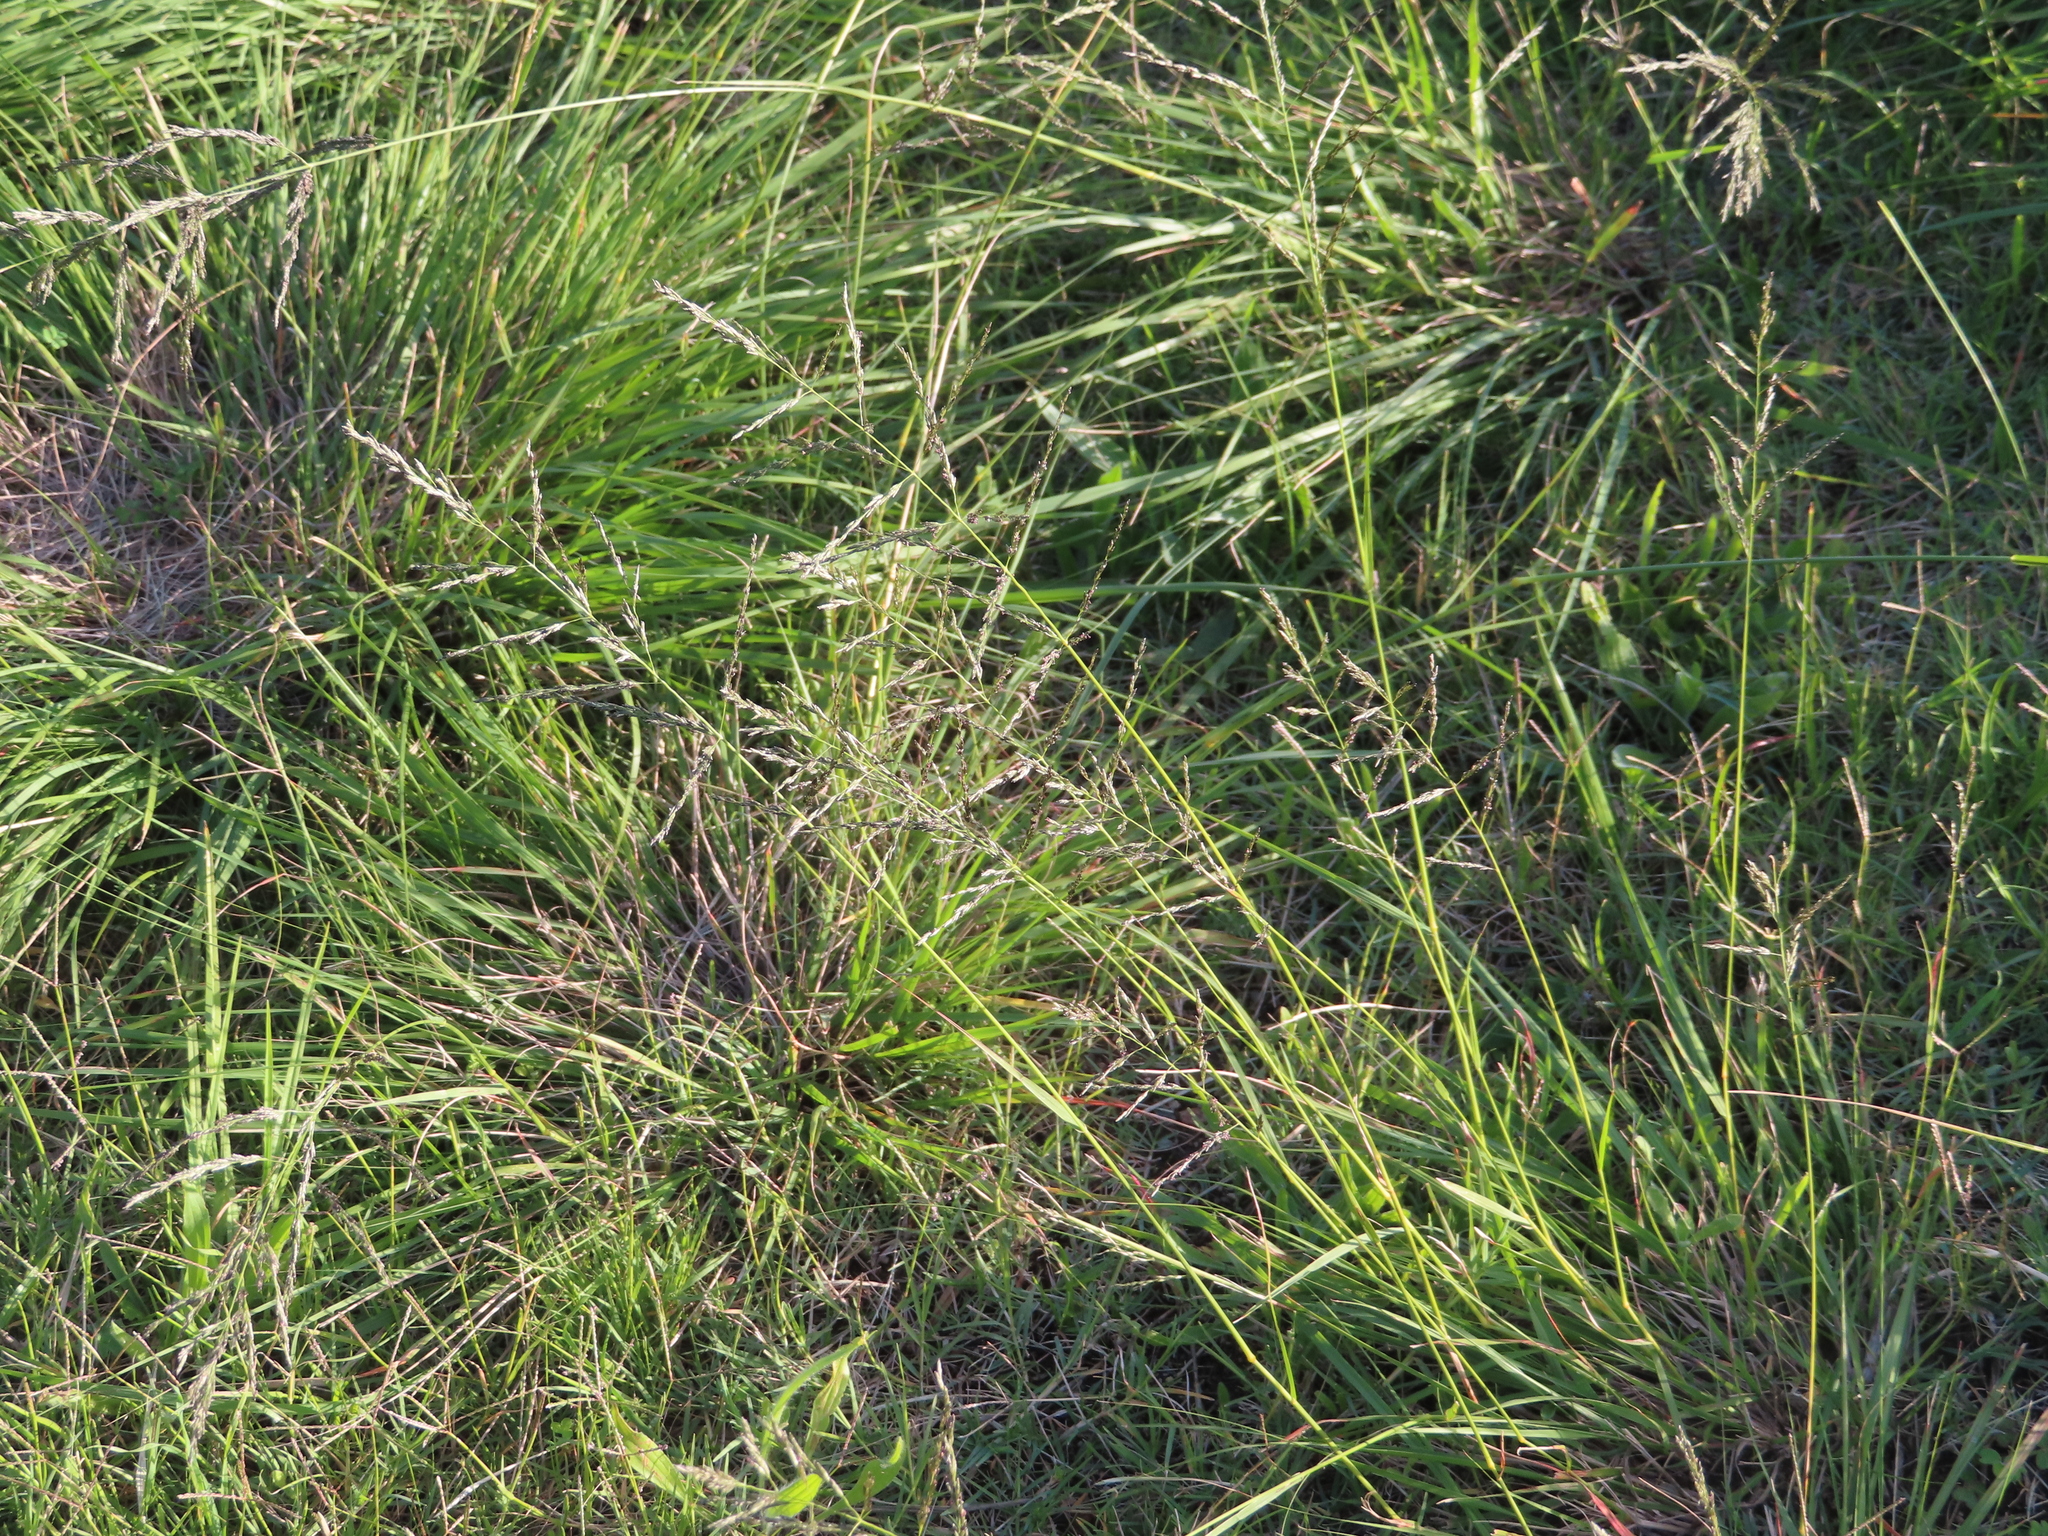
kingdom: Plantae
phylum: Tracheophyta
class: Liliopsida
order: Poales
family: Poaceae
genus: Eragrostis
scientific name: Eragrostis curvula
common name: African love-grass
